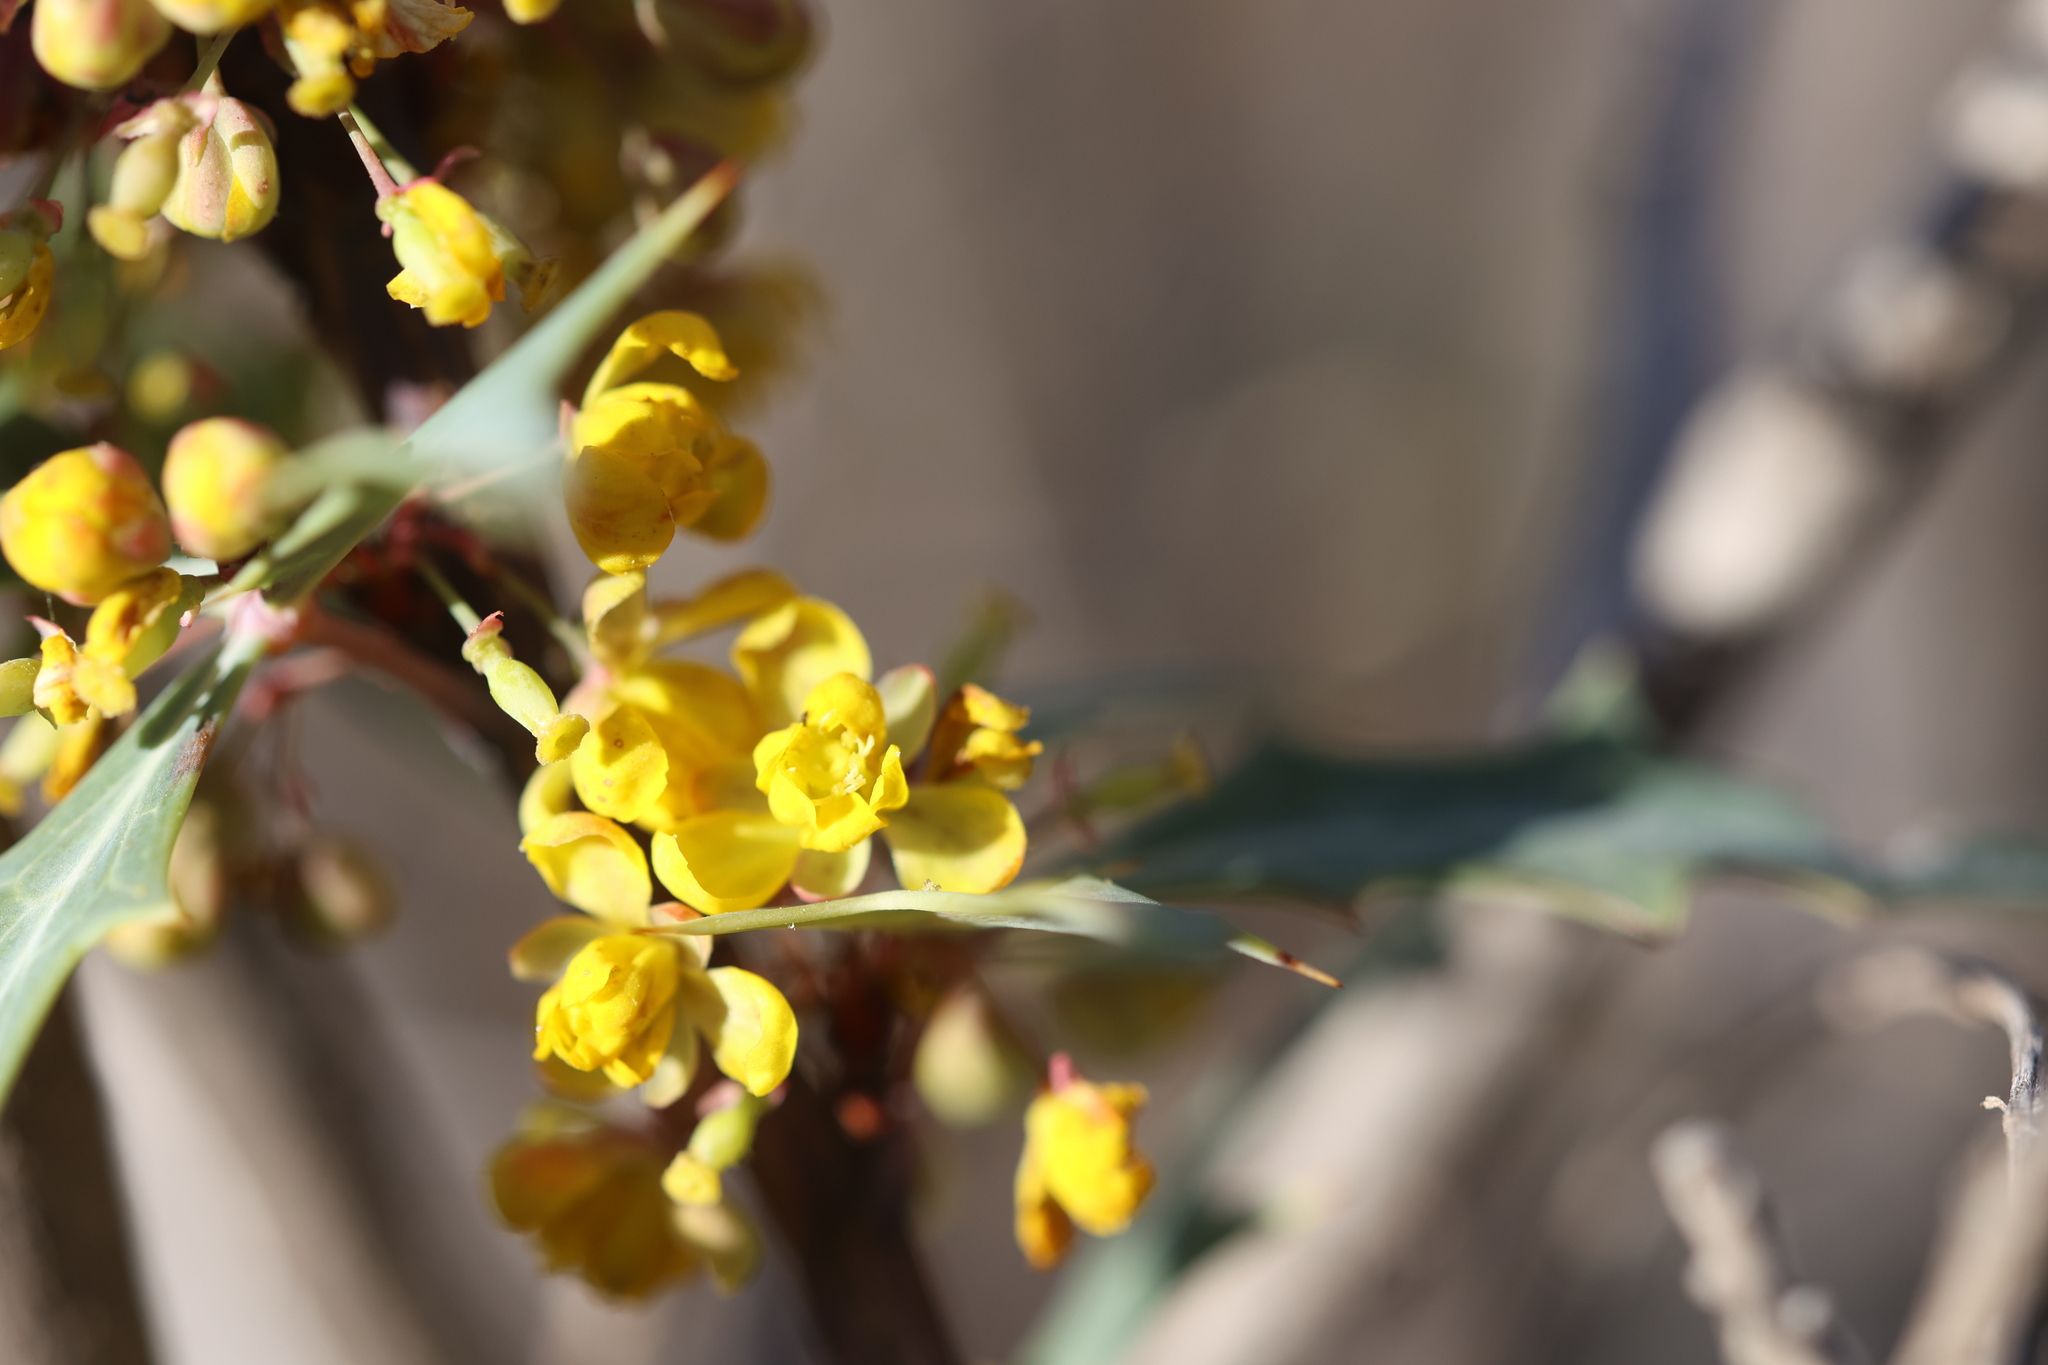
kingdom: Plantae
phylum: Tracheophyta
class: Magnoliopsida
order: Ranunculales
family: Berberidaceae
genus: Alloberberis
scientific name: Alloberberis trifoliolata
